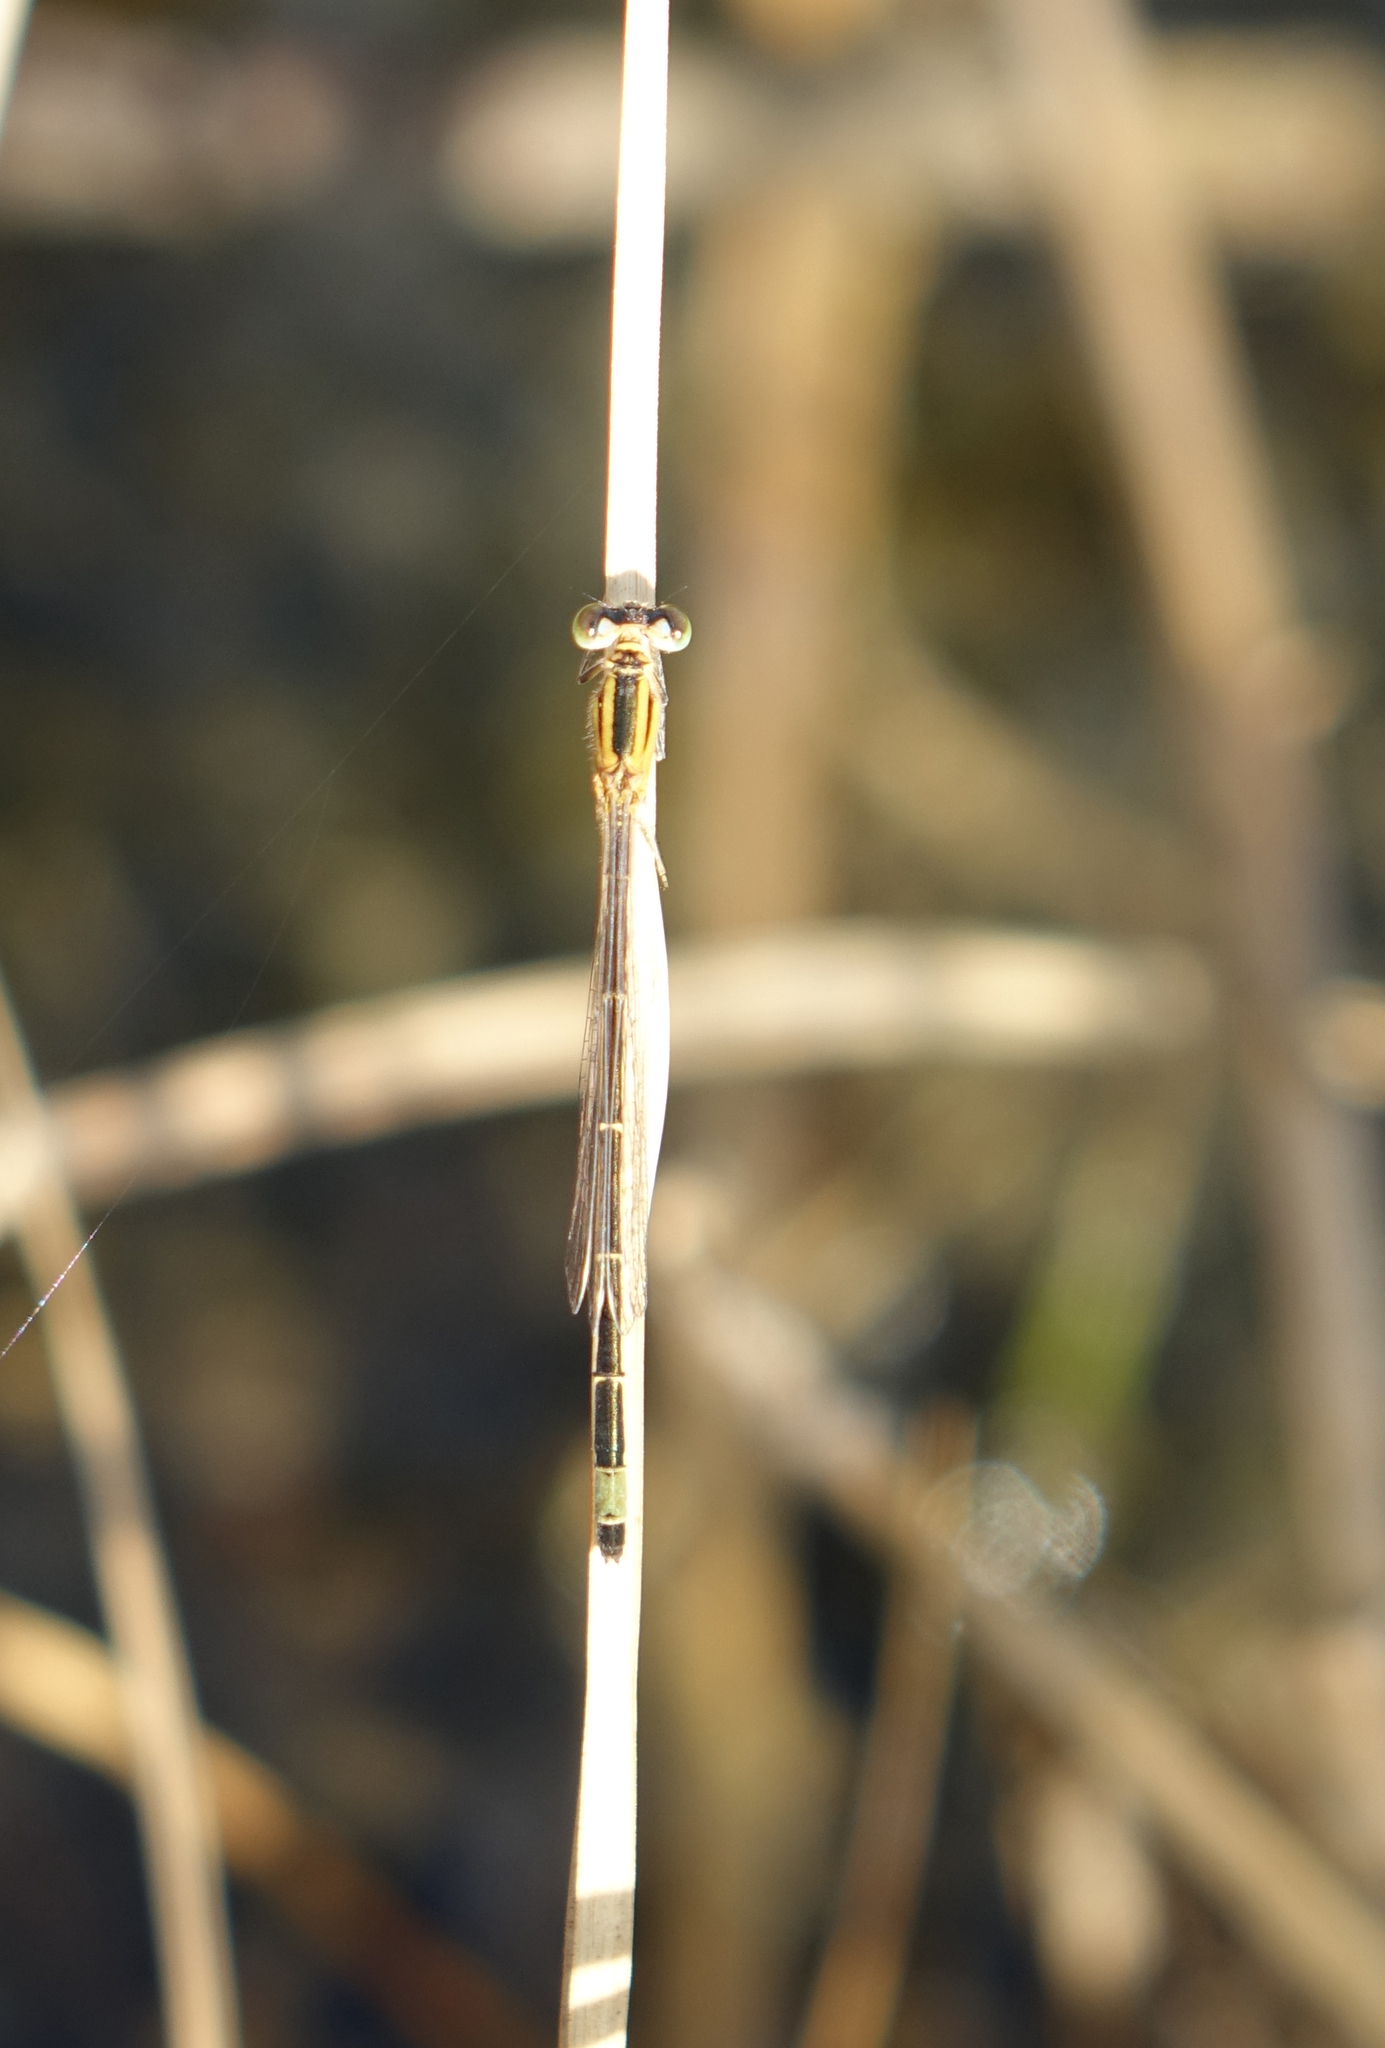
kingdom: Animalia
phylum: Arthropoda
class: Insecta
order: Odonata
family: Coenagrionidae
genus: Ischnura
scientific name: Ischnura elegans
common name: Blue-tailed damselfly
